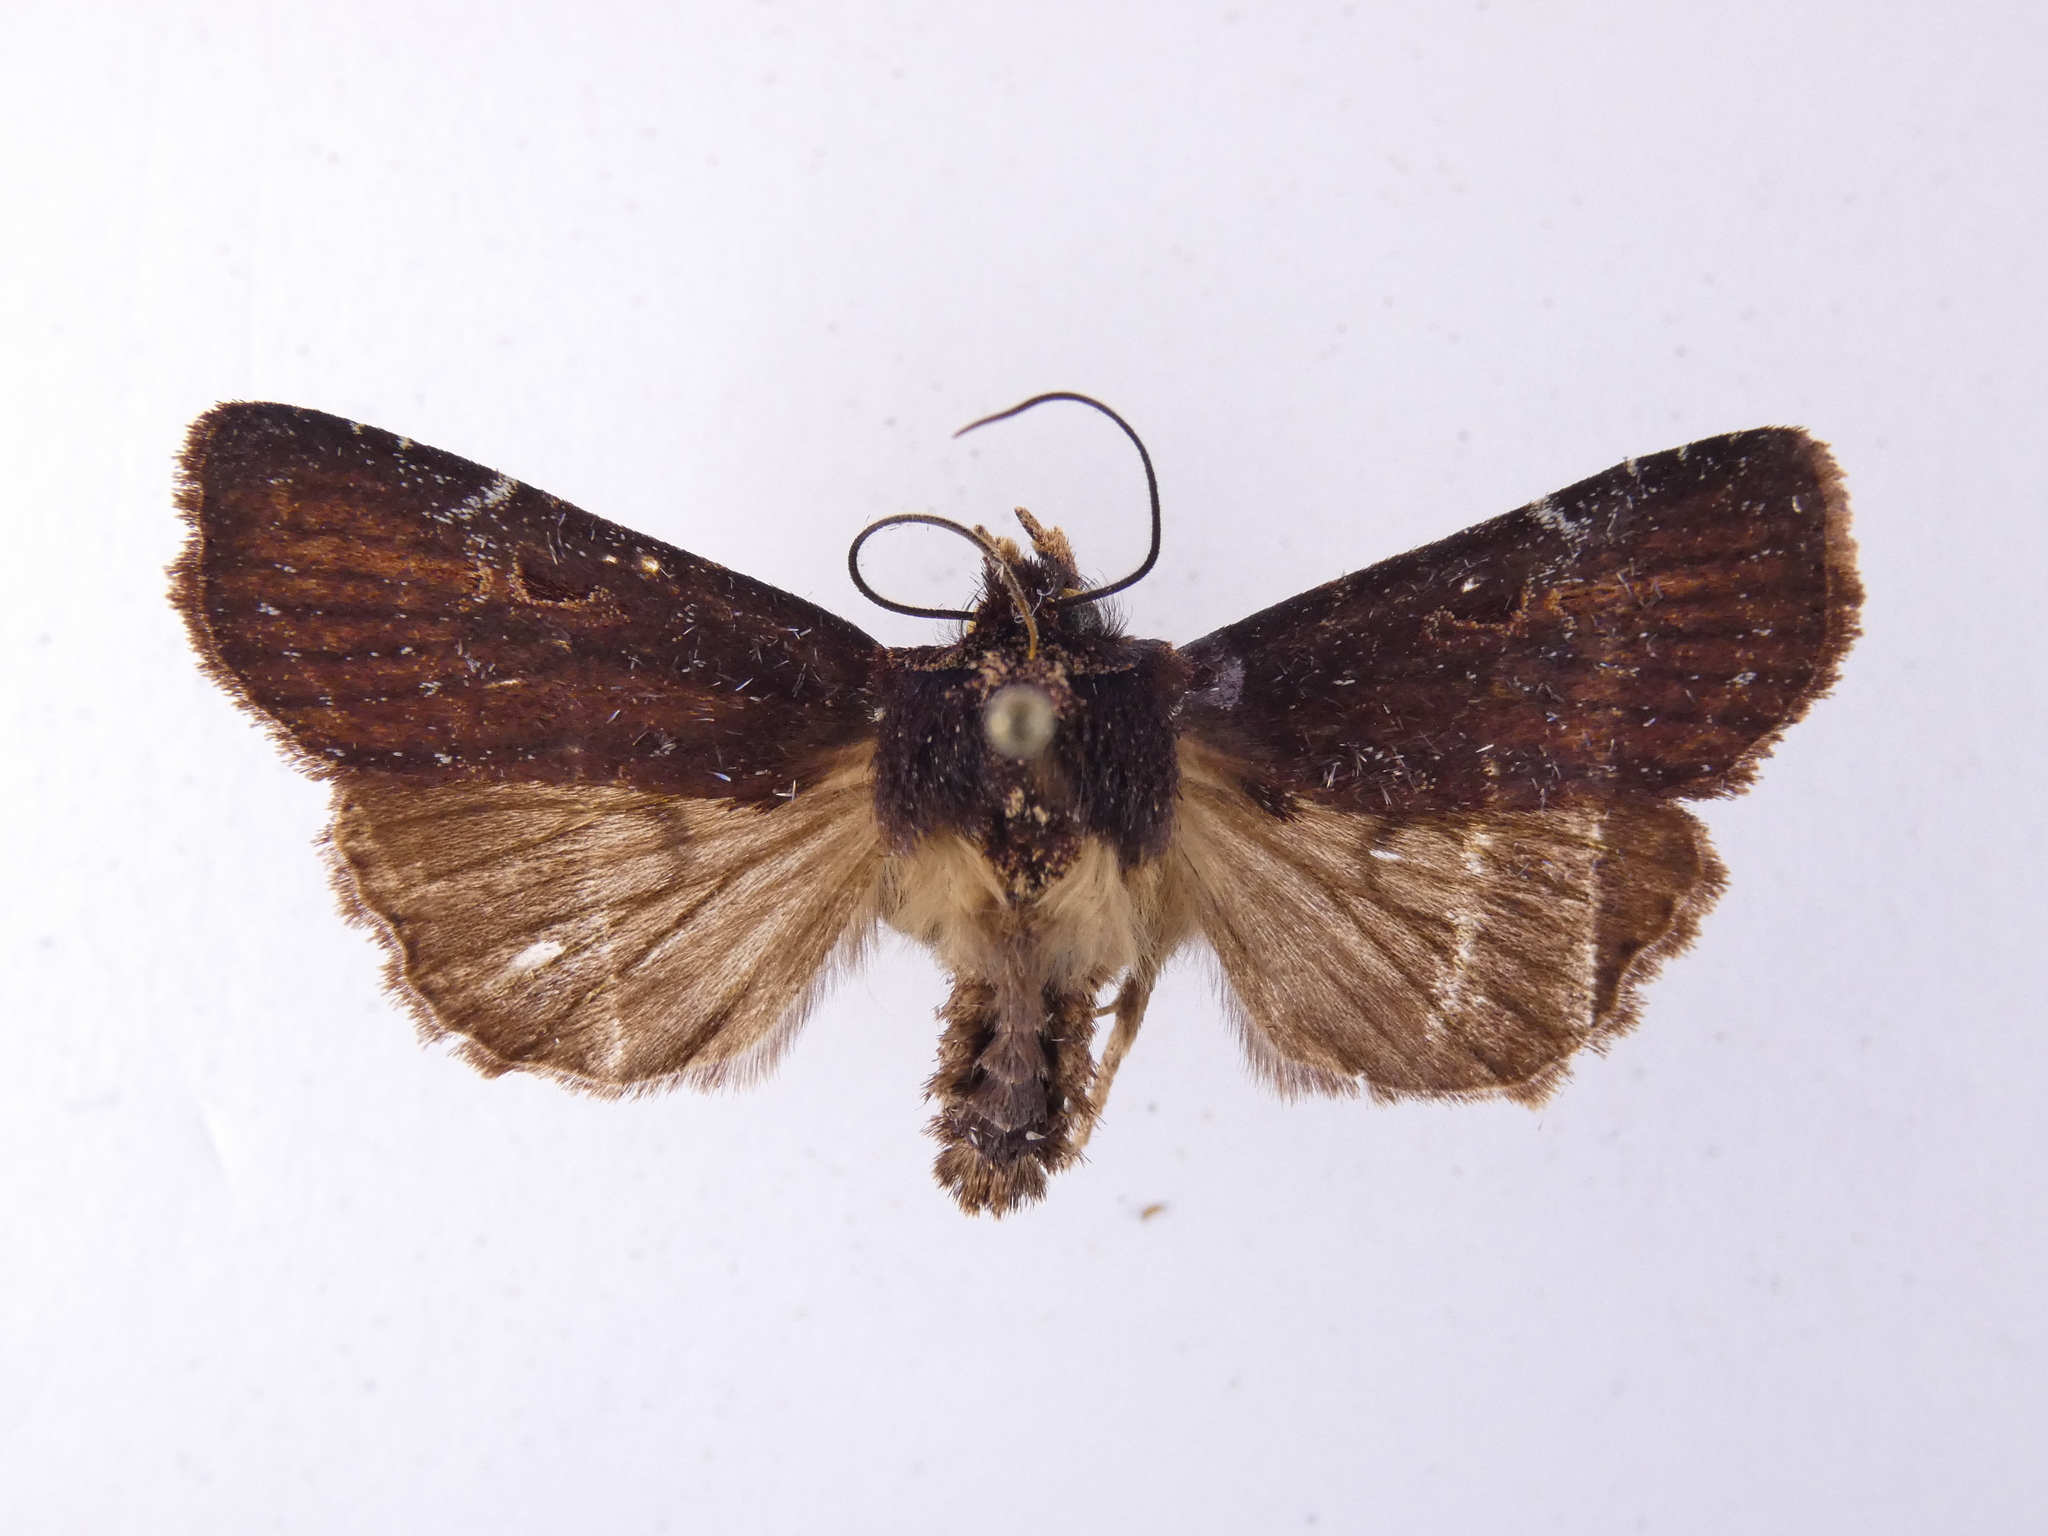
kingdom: Animalia
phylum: Arthropoda
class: Insecta
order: Lepidoptera
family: Noctuidae
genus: Austramathes
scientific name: Austramathes purpurea
